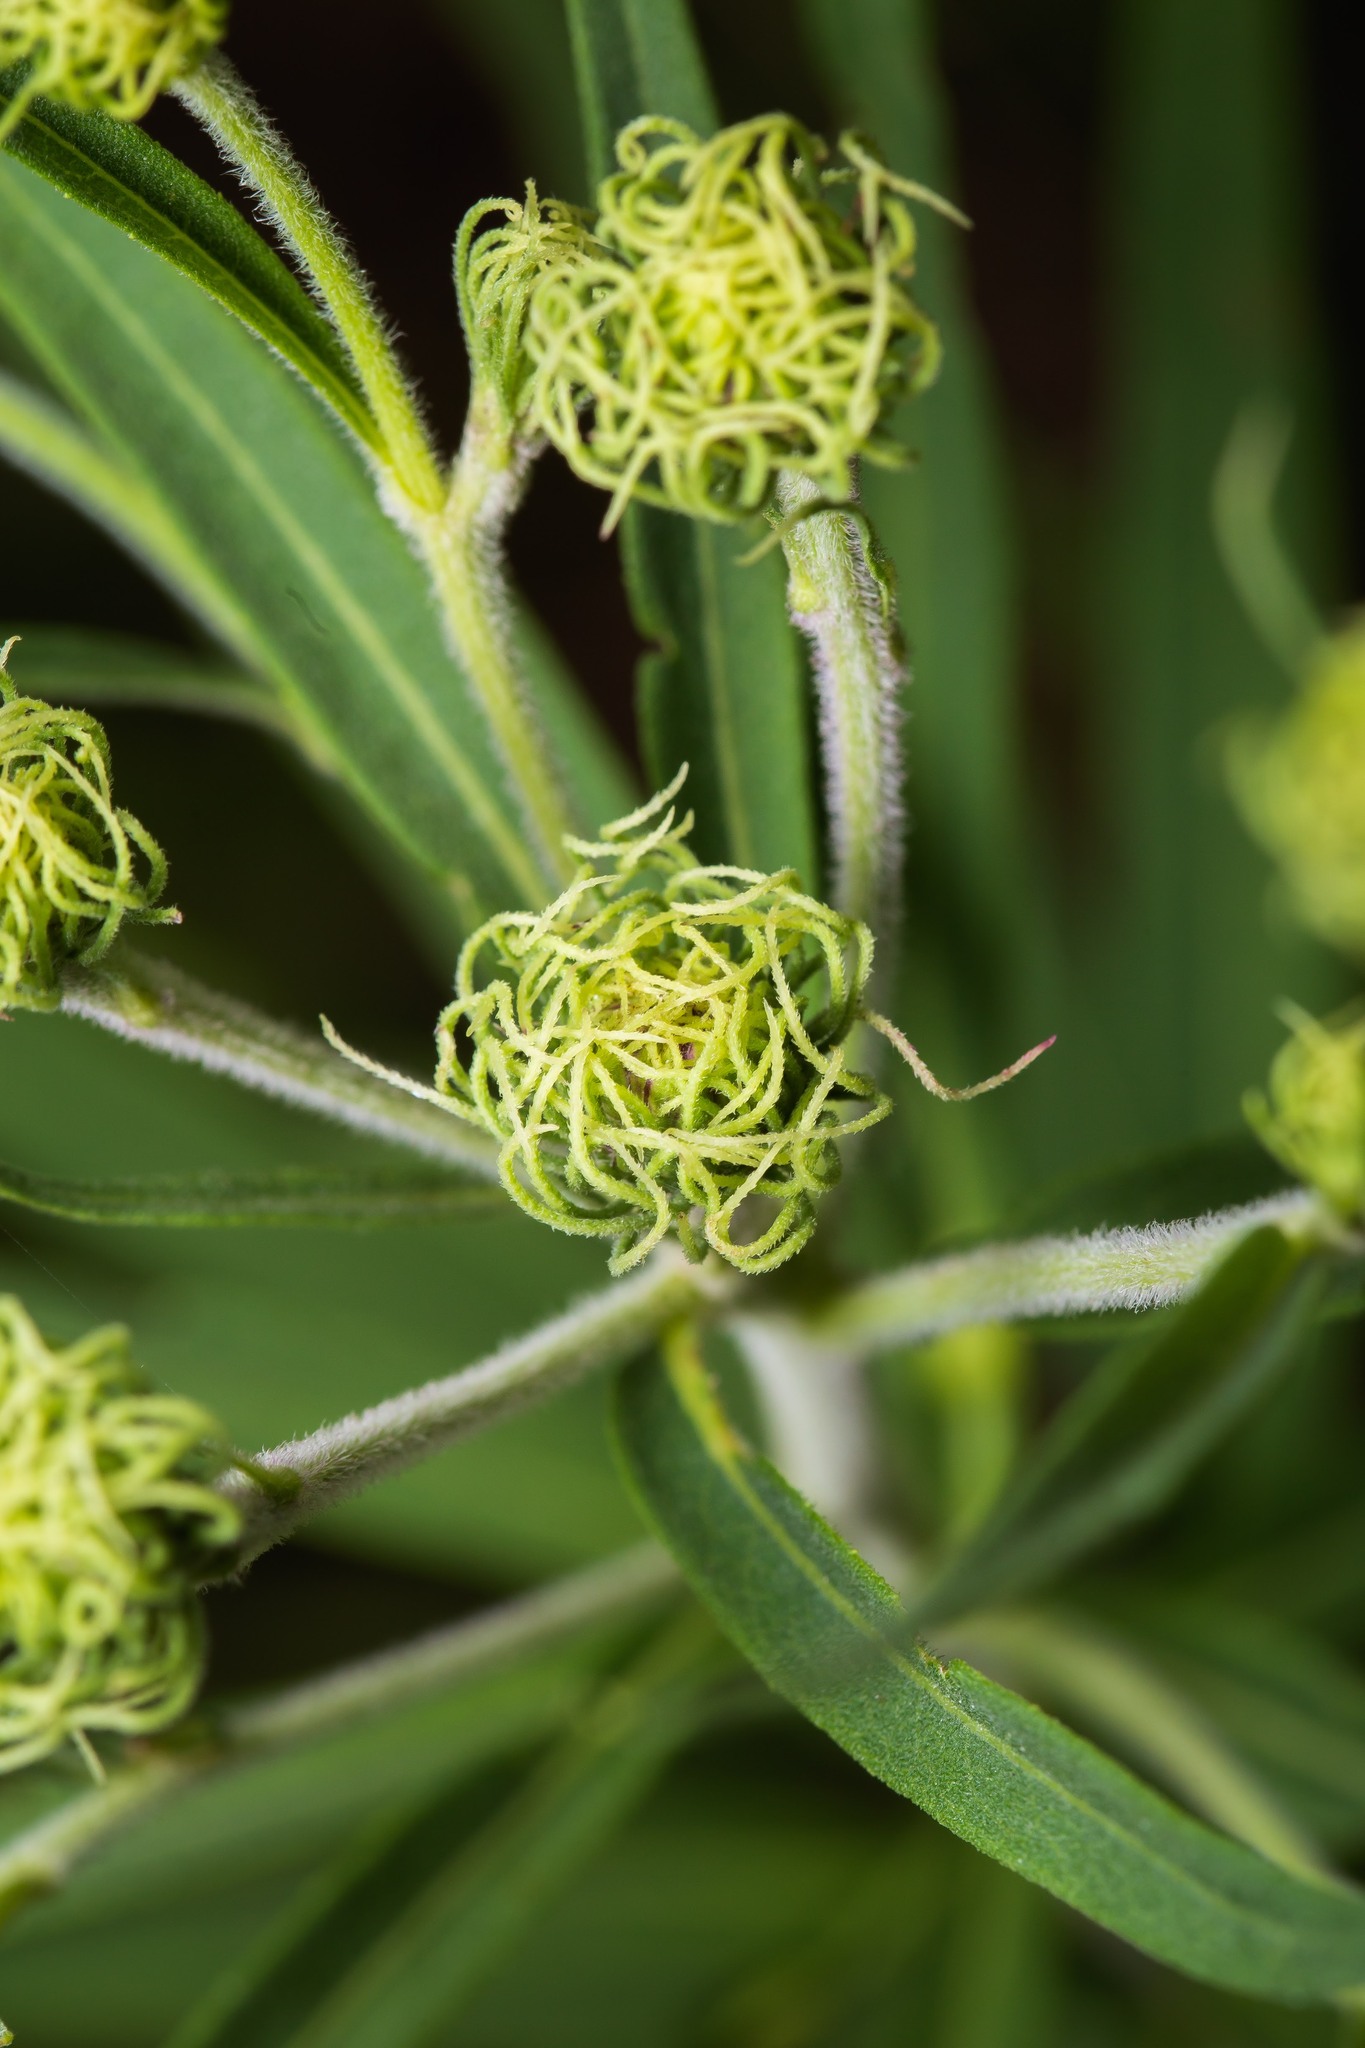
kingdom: Plantae
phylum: Tracheophyta
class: Magnoliopsida
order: Asterales
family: Asteraceae
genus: Vernonia
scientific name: Vernonia arkansana
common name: Ozark ironweed
